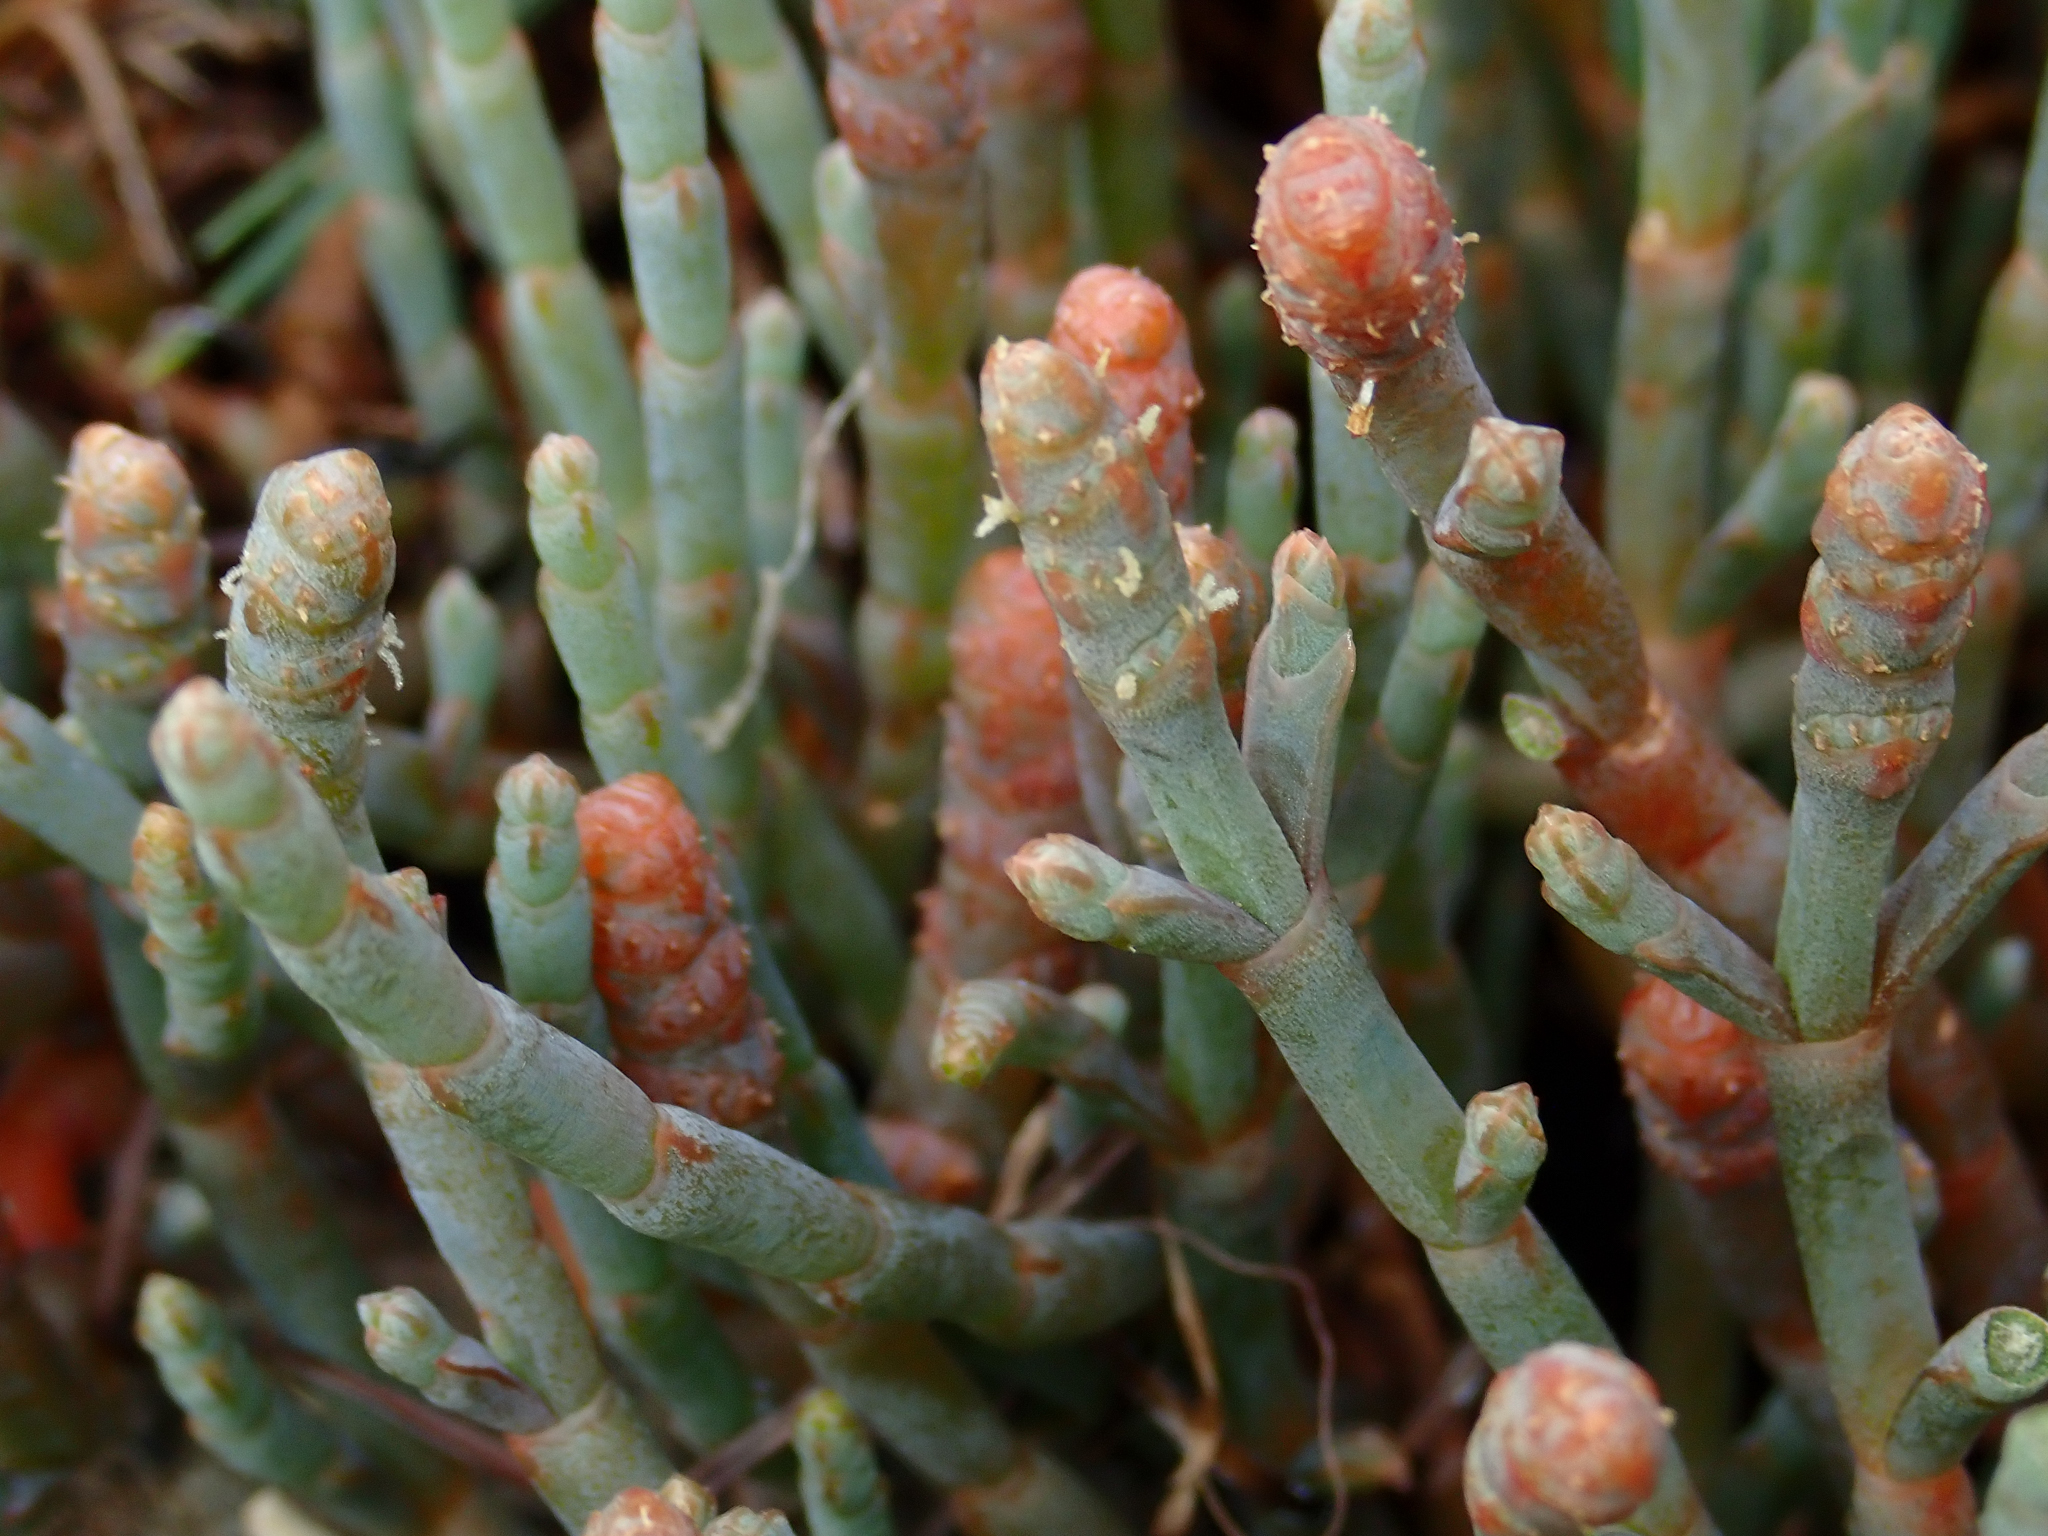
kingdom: Plantae
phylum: Tracheophyta
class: Magnoliopsida
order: Caryophyllales
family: Amaranthaceae
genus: Salicornia
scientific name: Salicornia quinqueflora
